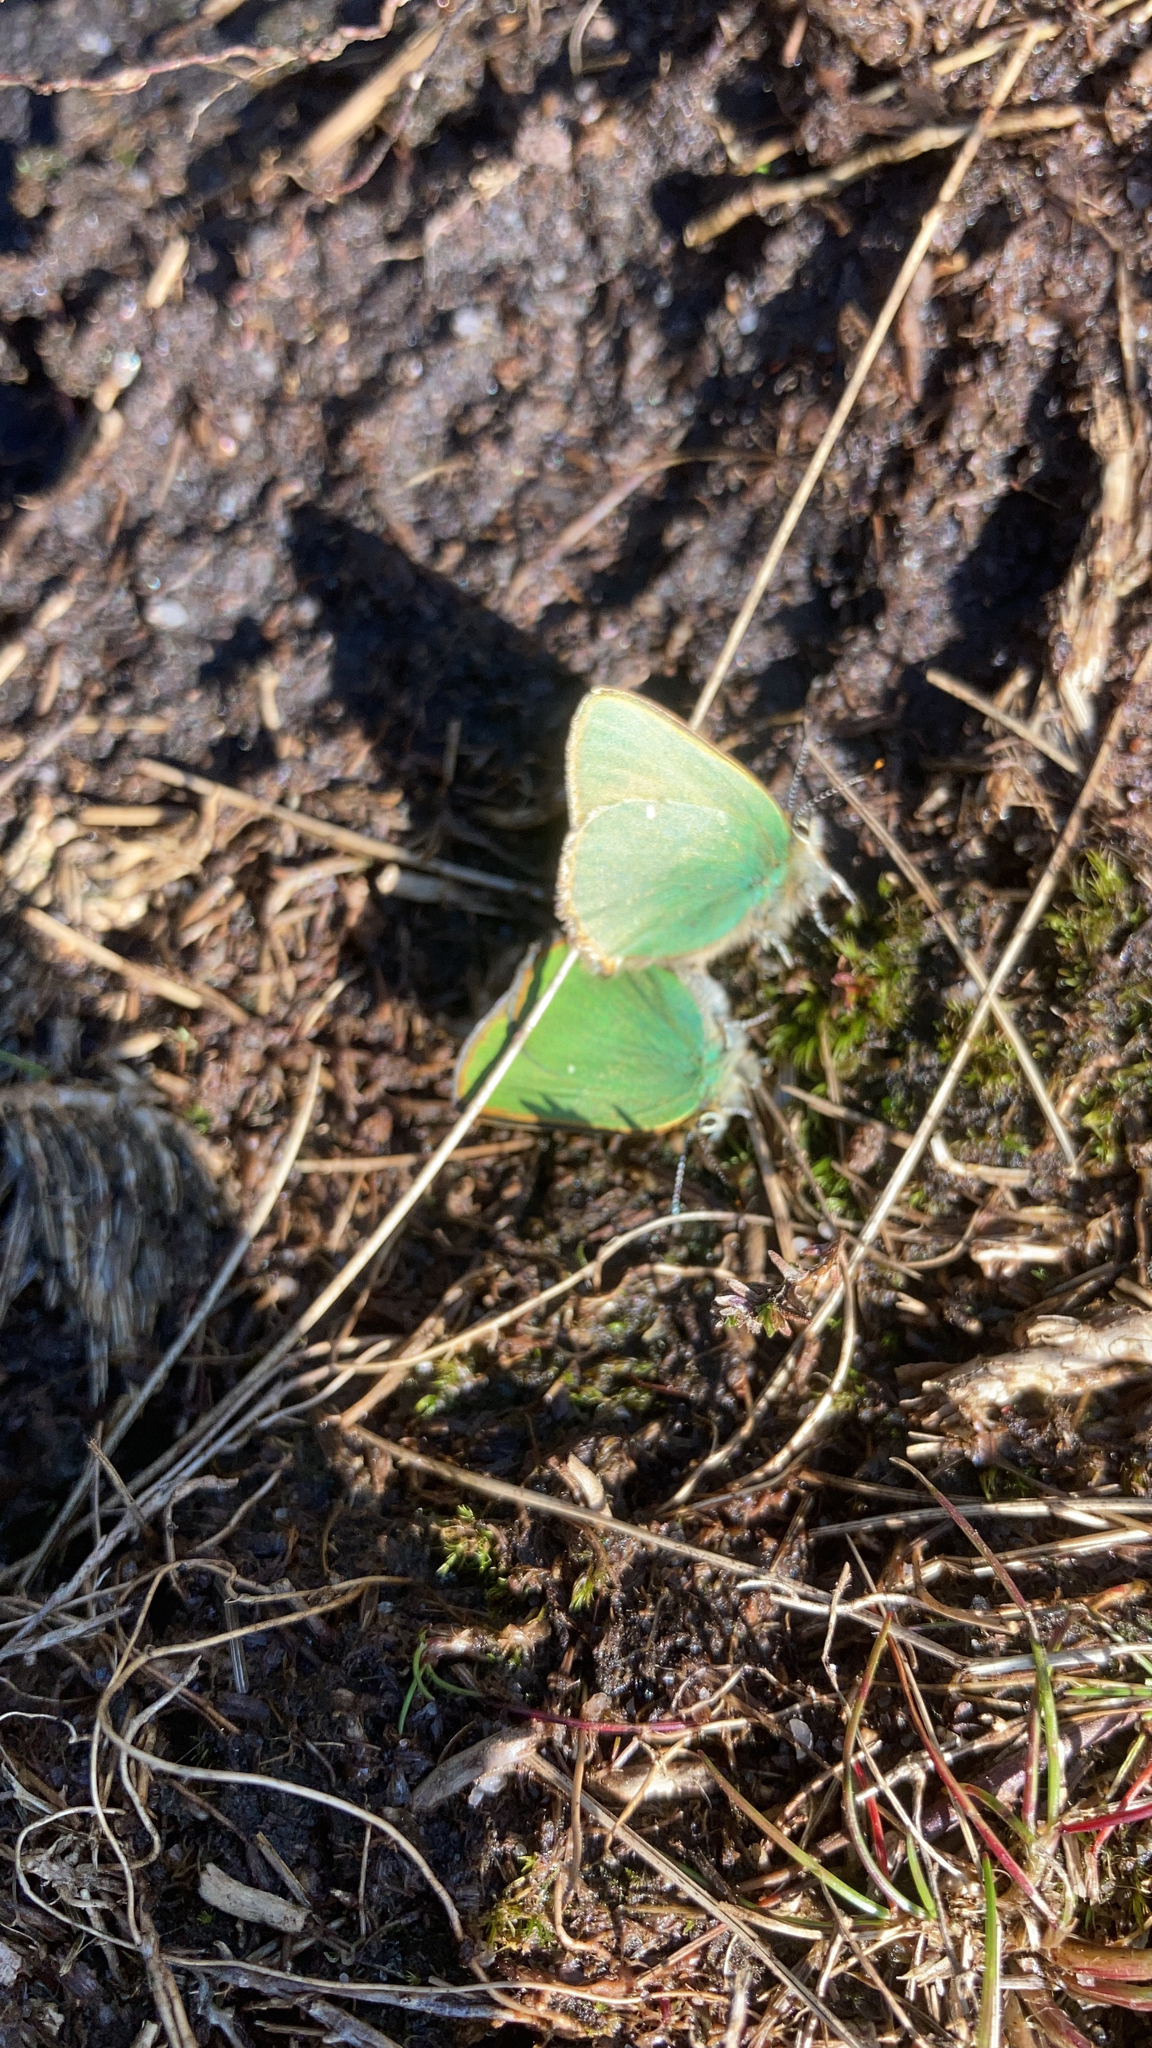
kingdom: Animalia
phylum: Arthropoda
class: Insecta
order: Lepidoptera
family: Lycaenidae
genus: Callophrys
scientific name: Callophrys rubi
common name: Green hairstreak
